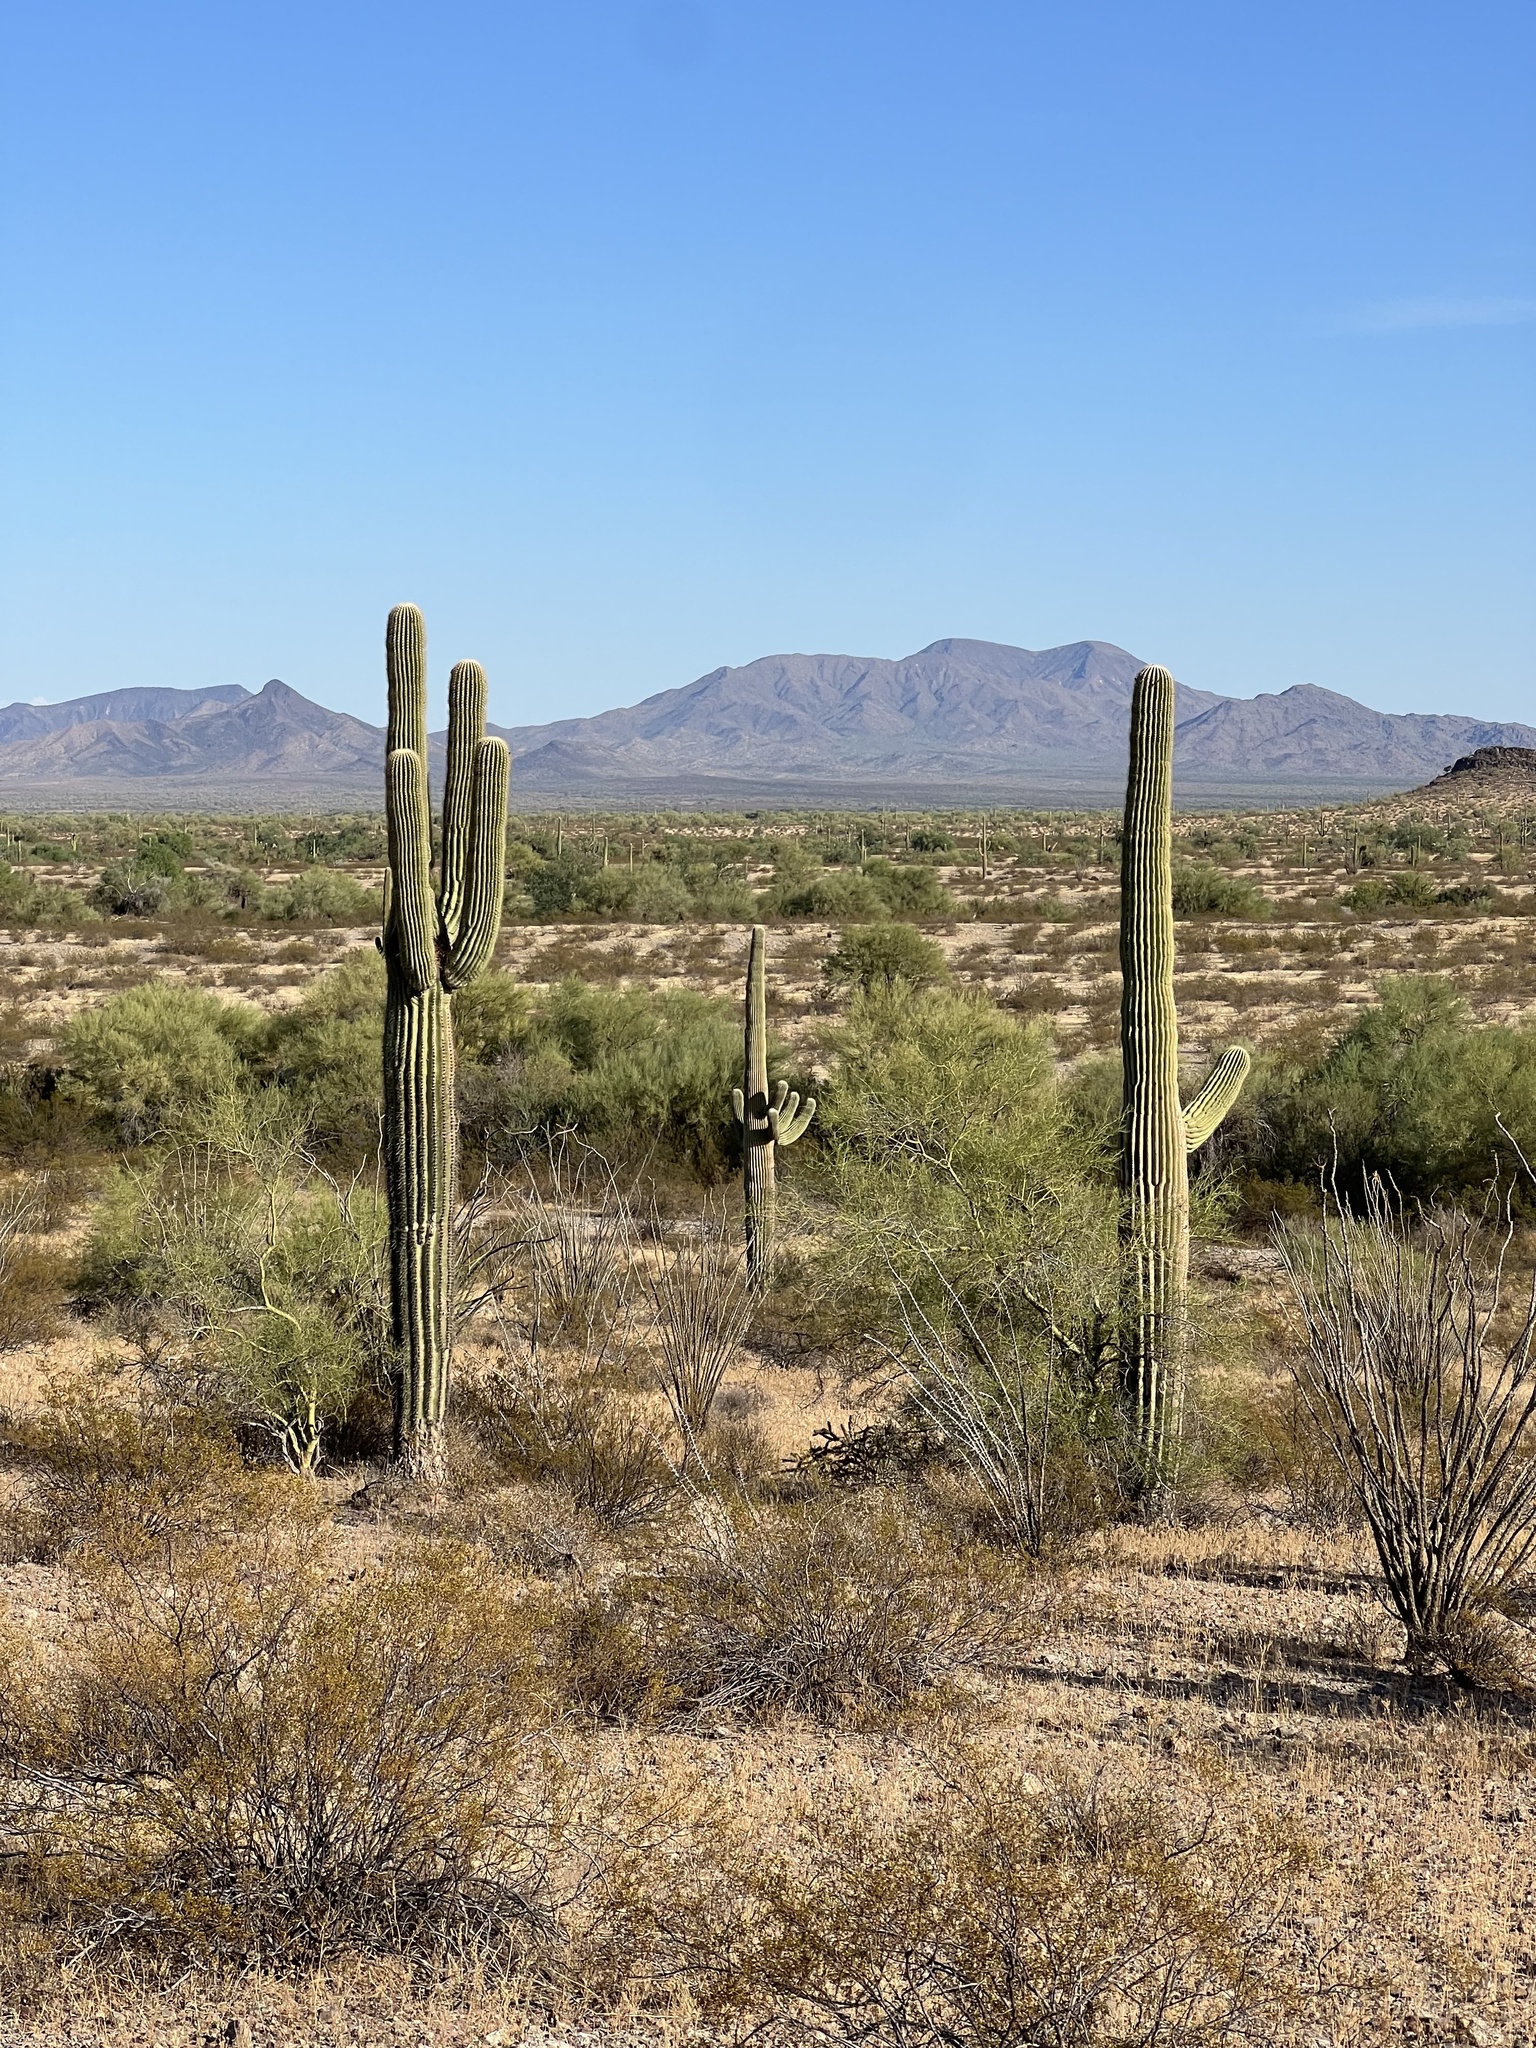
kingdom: Plantae
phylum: Tracheophyta
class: Magnoliopsida
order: Caryophyllales
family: Cactaceae
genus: Carnegiea
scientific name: Carnegiea gigantea
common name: Saguaro
